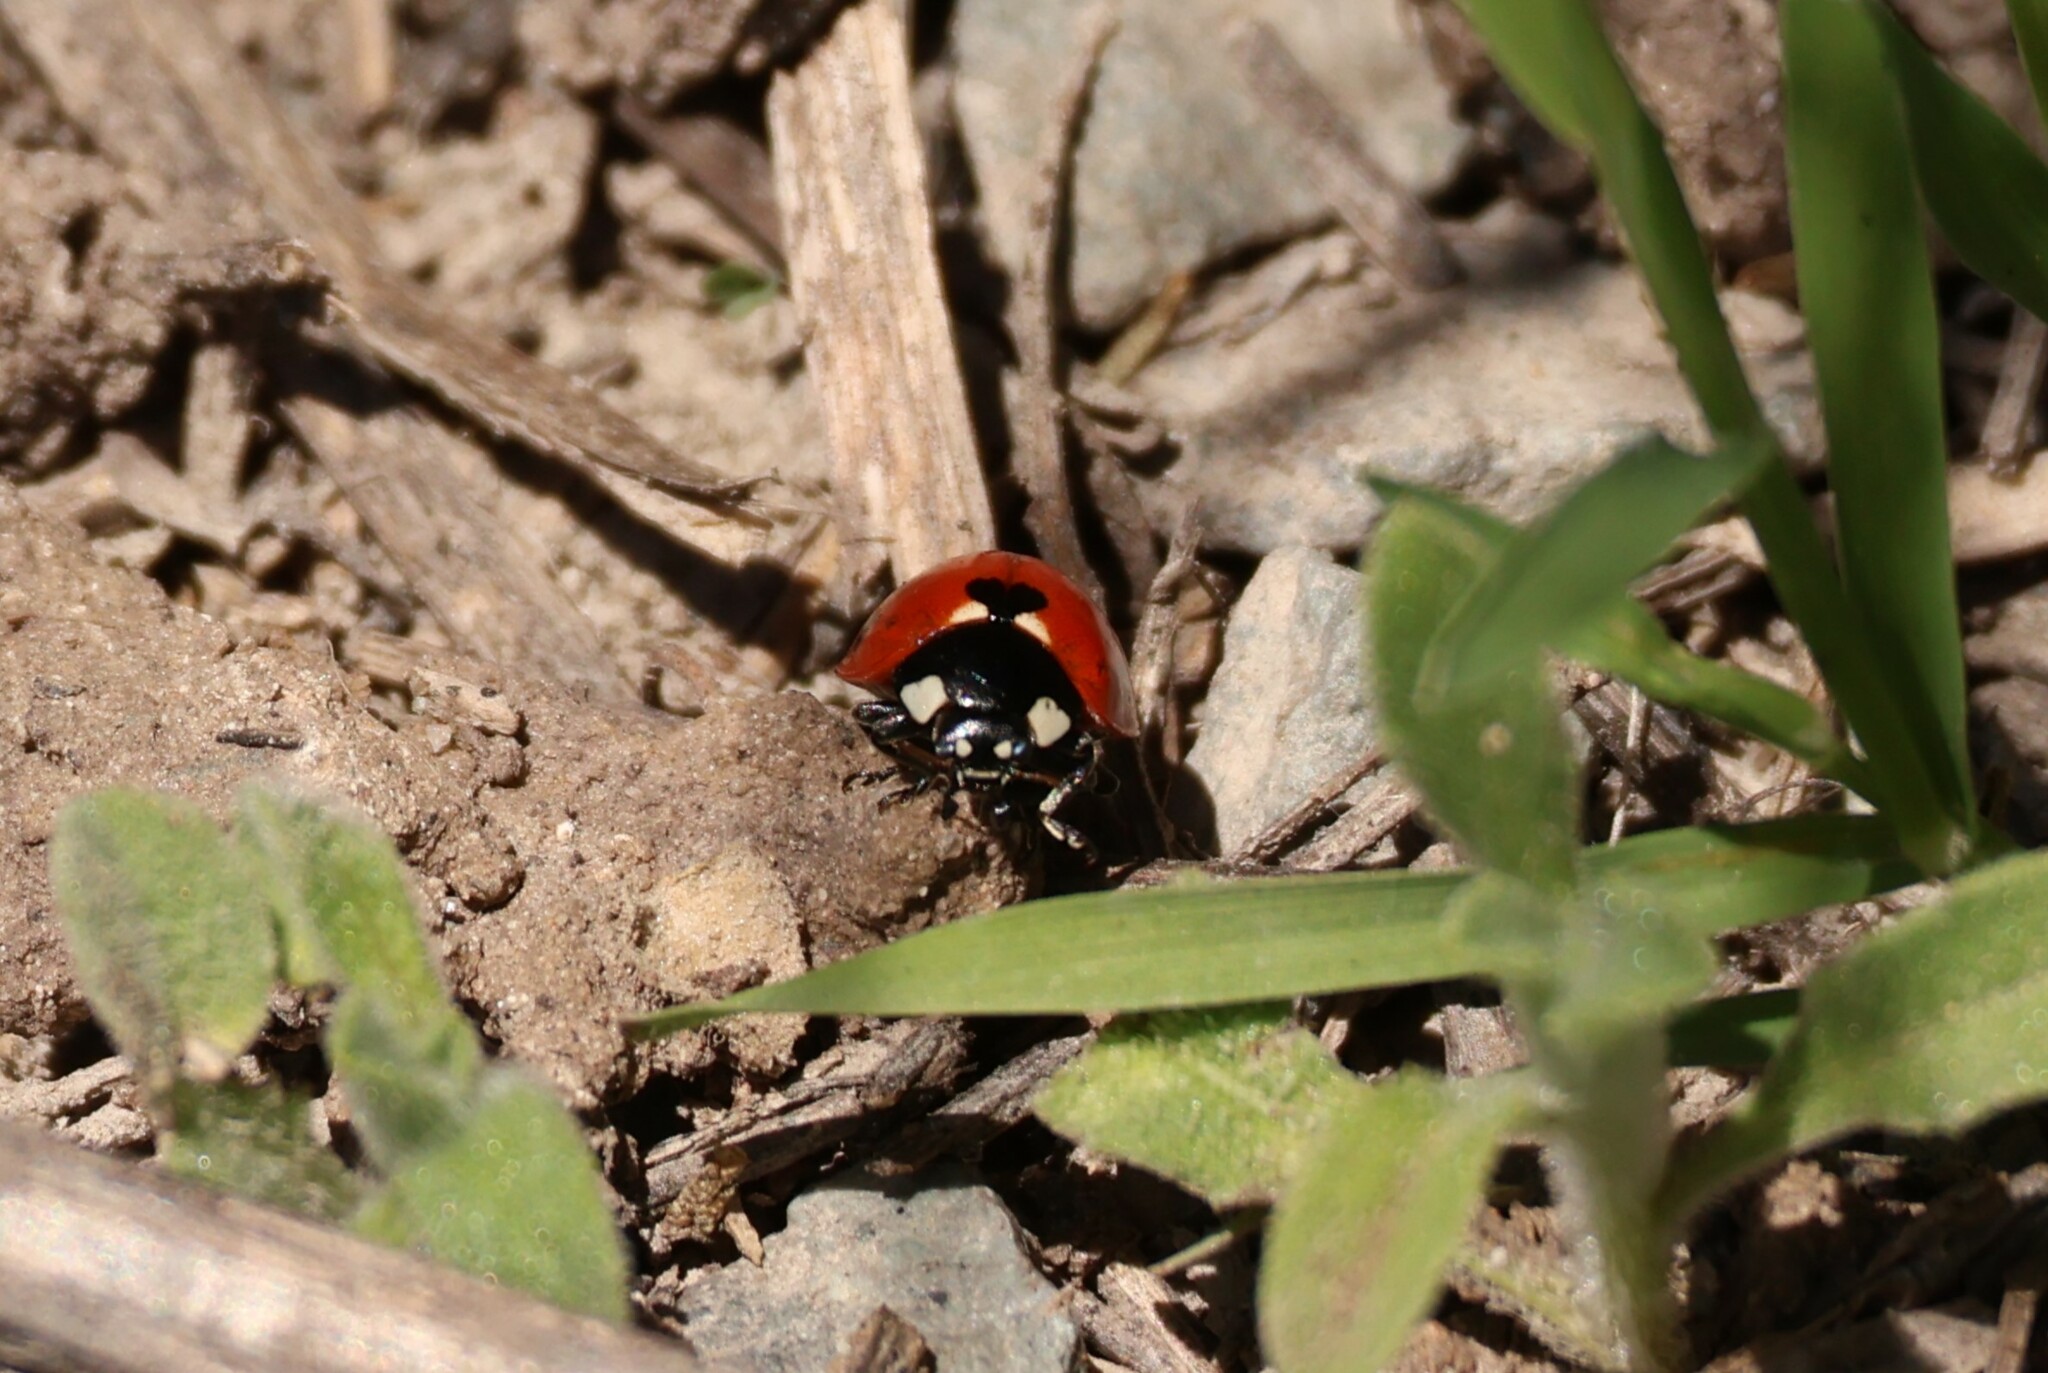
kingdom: Animalia
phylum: Arthropoda
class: Insecta
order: Coleoptera
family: Coccinellidae
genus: Coccinella
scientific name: Coccinella septempunctata
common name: Sevenspotted lady beetle
